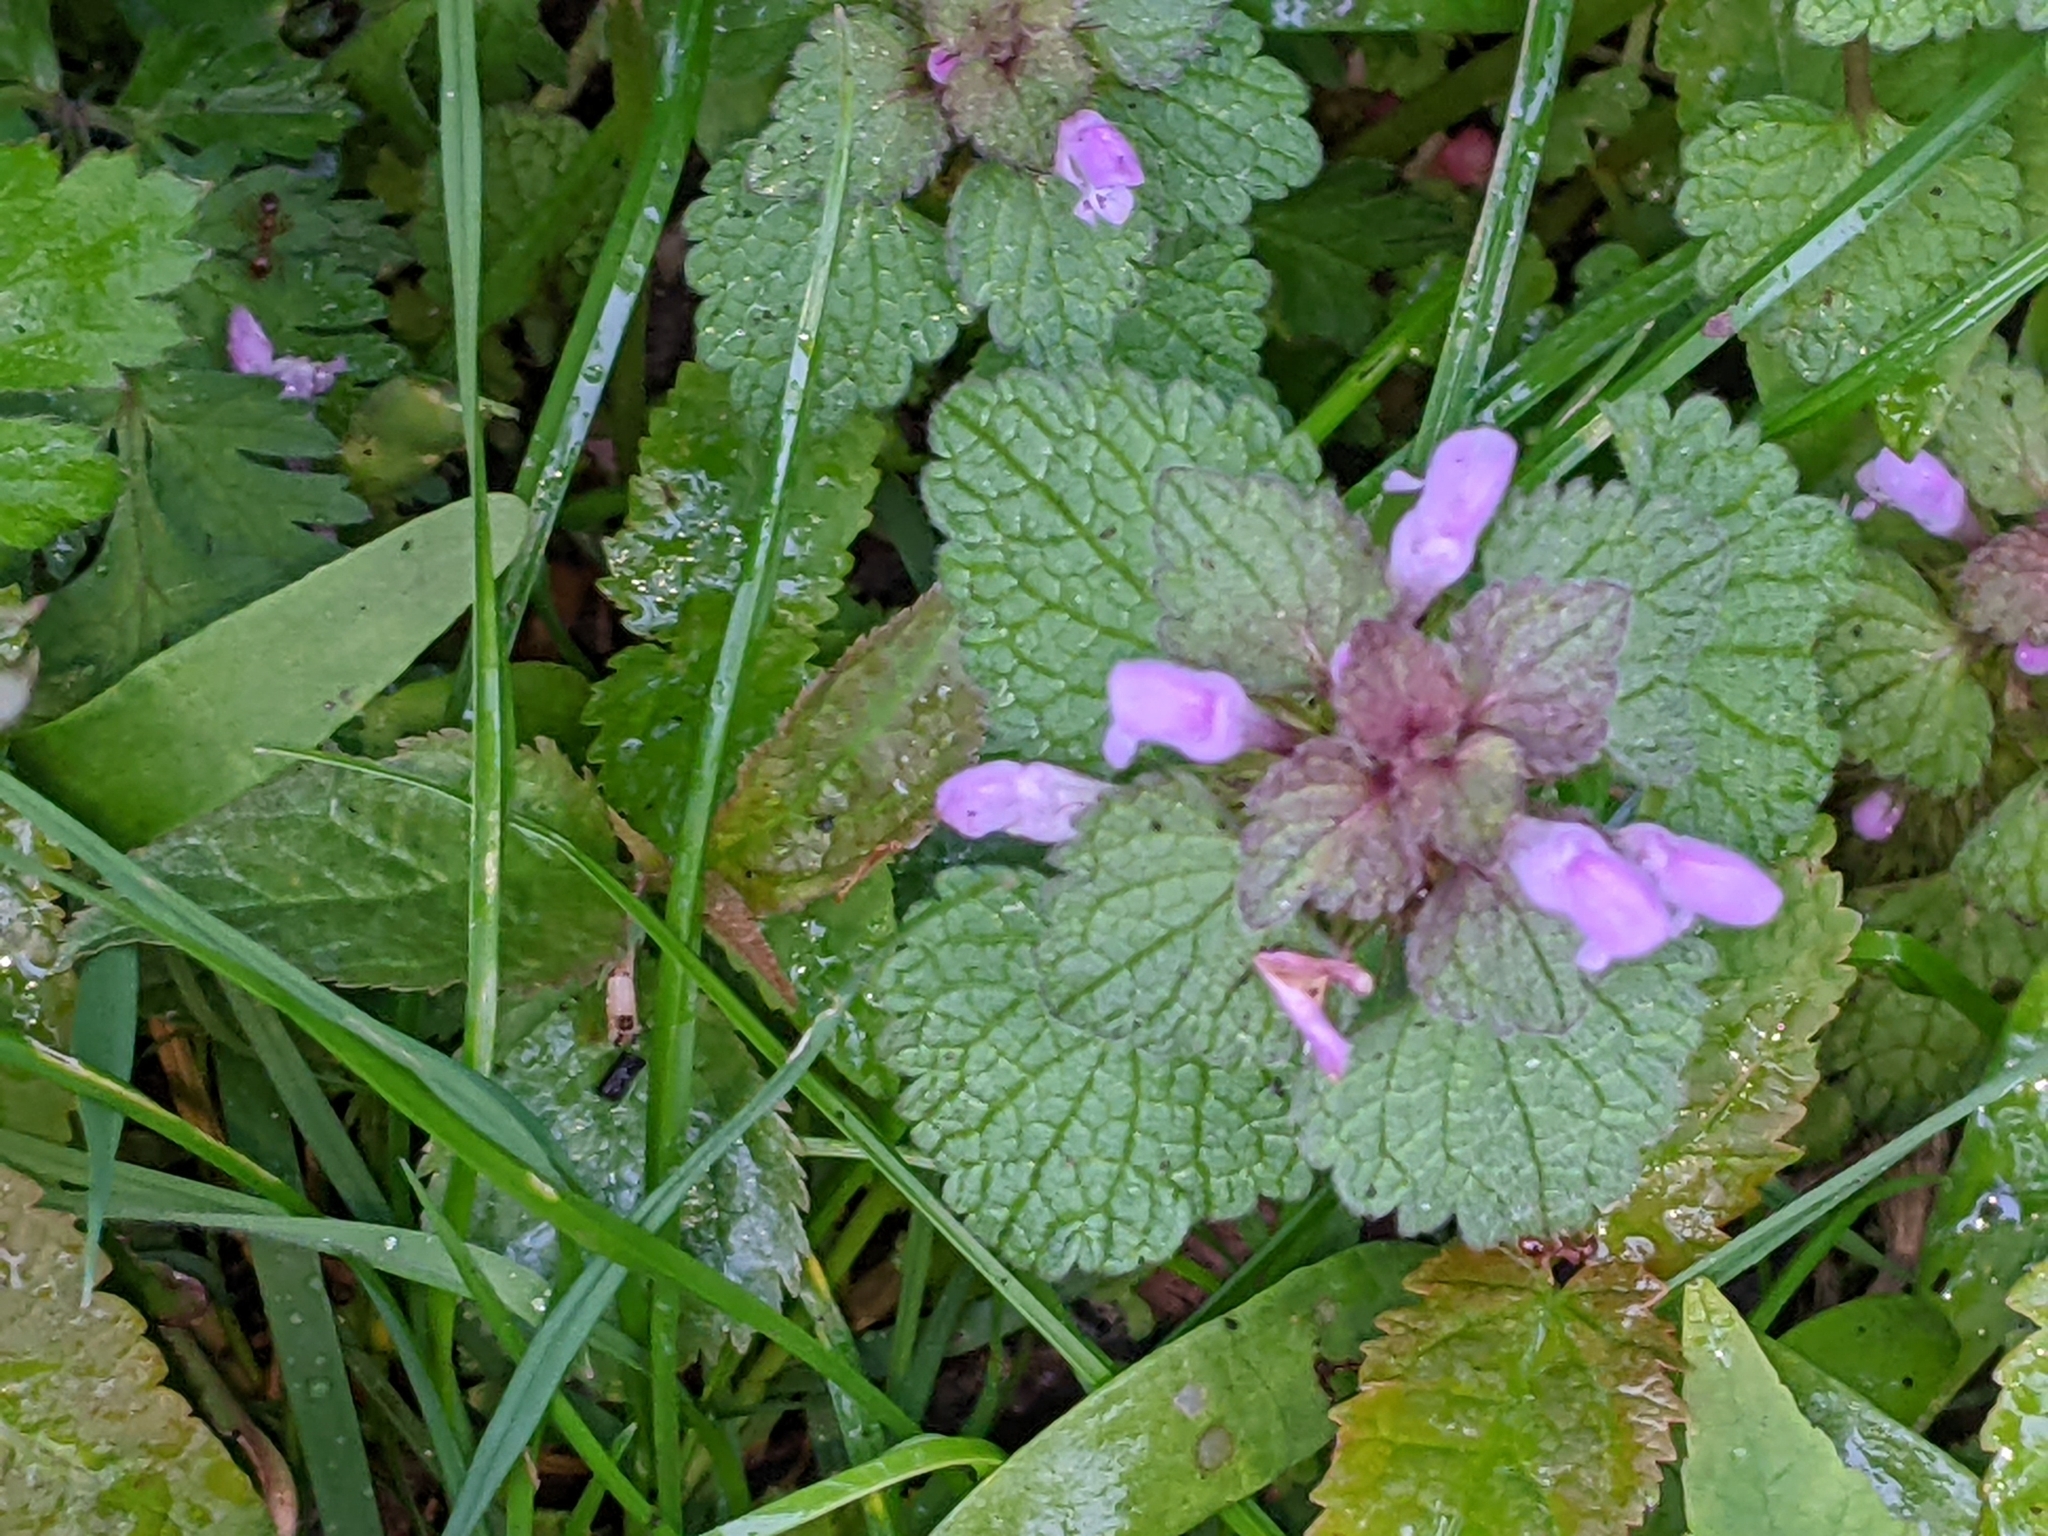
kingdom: Plantae
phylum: Tracheophyta
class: Magnoliopsida
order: Lamiales
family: Lamiaceae
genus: Lamium
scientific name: Lamium purpureum
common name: Red dead-nettle
